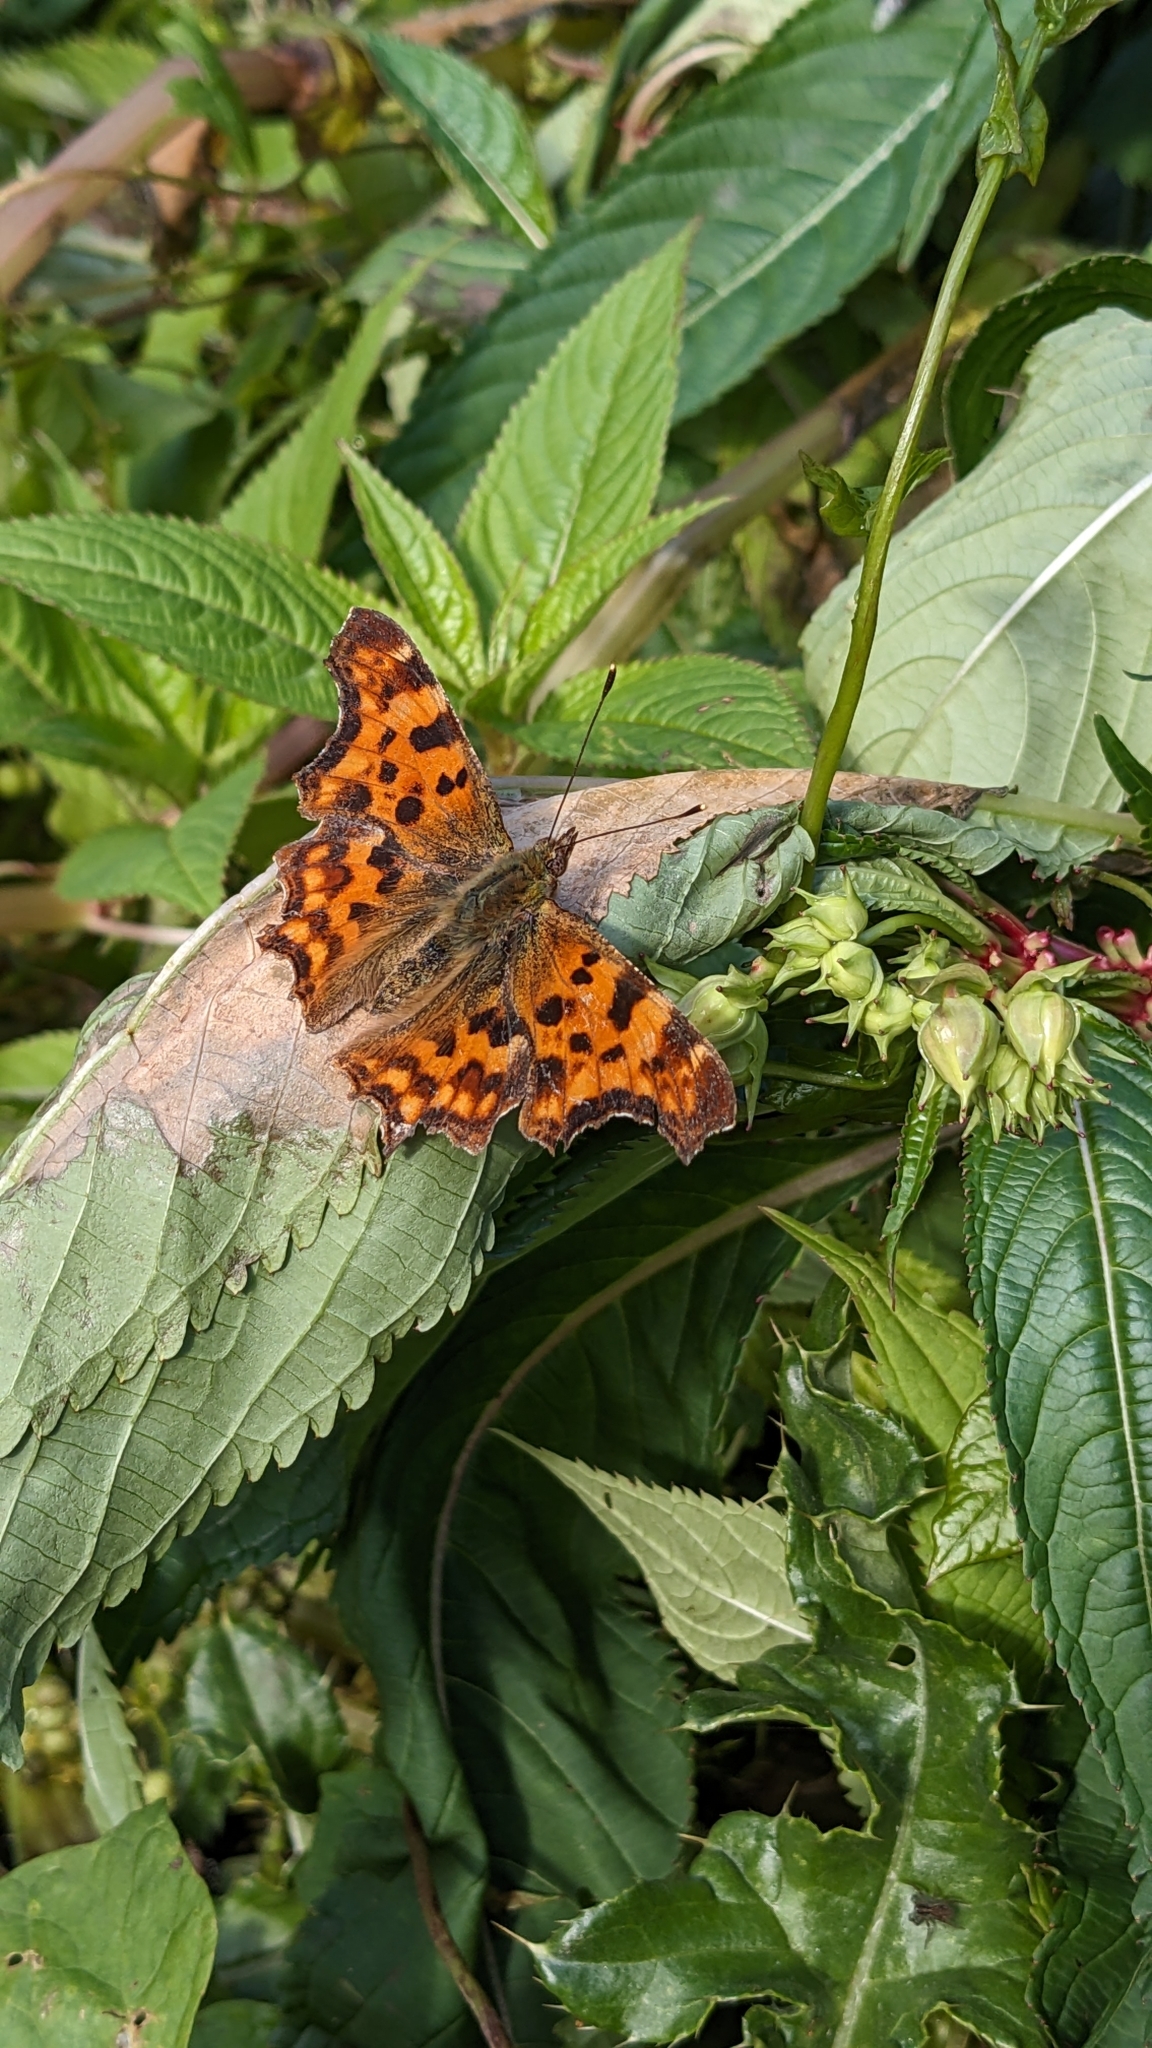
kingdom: Animalia
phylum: Arthropoda
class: Insecta
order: Lepidoptera
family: Nymphalidae
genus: Polygonia
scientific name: Polygonia c-album
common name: Comma
